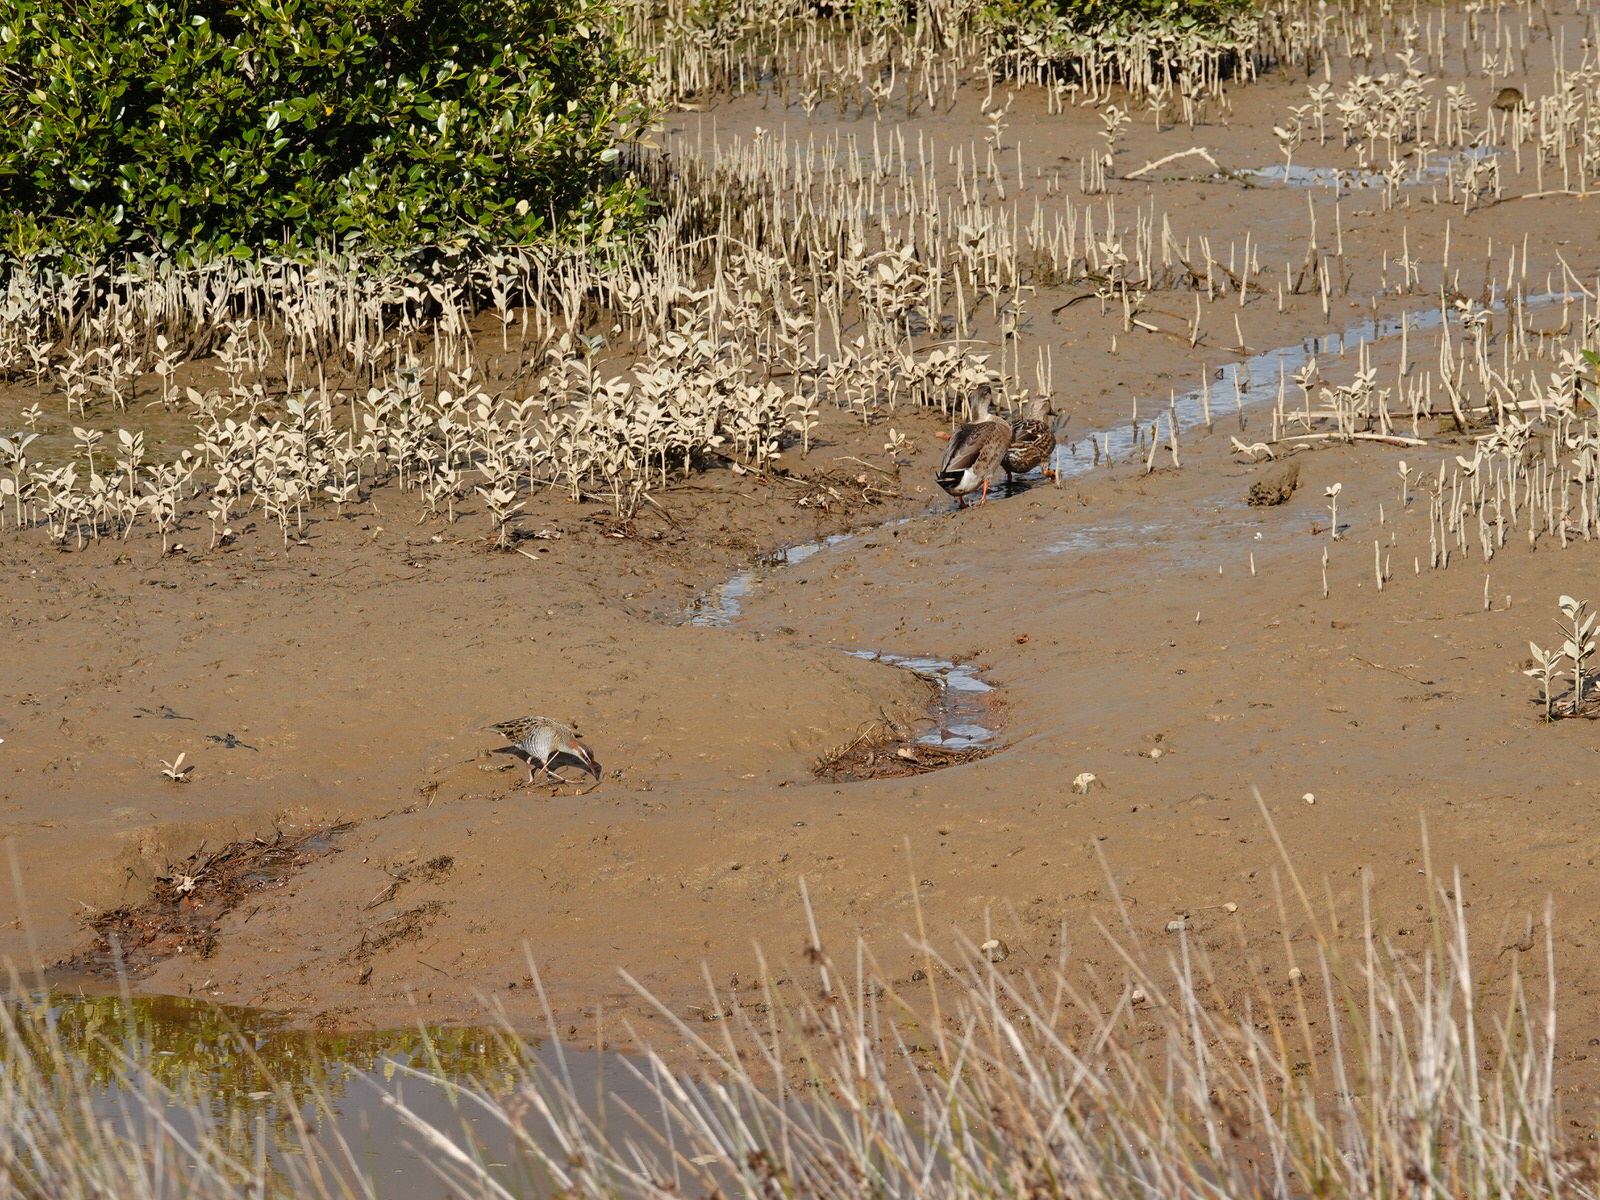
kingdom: Animalia
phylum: Chordata
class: Aves
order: Gruiformes
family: Rallidae
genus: Gallirallus
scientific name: Gallirallus philippensis
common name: Buff-banded rail
